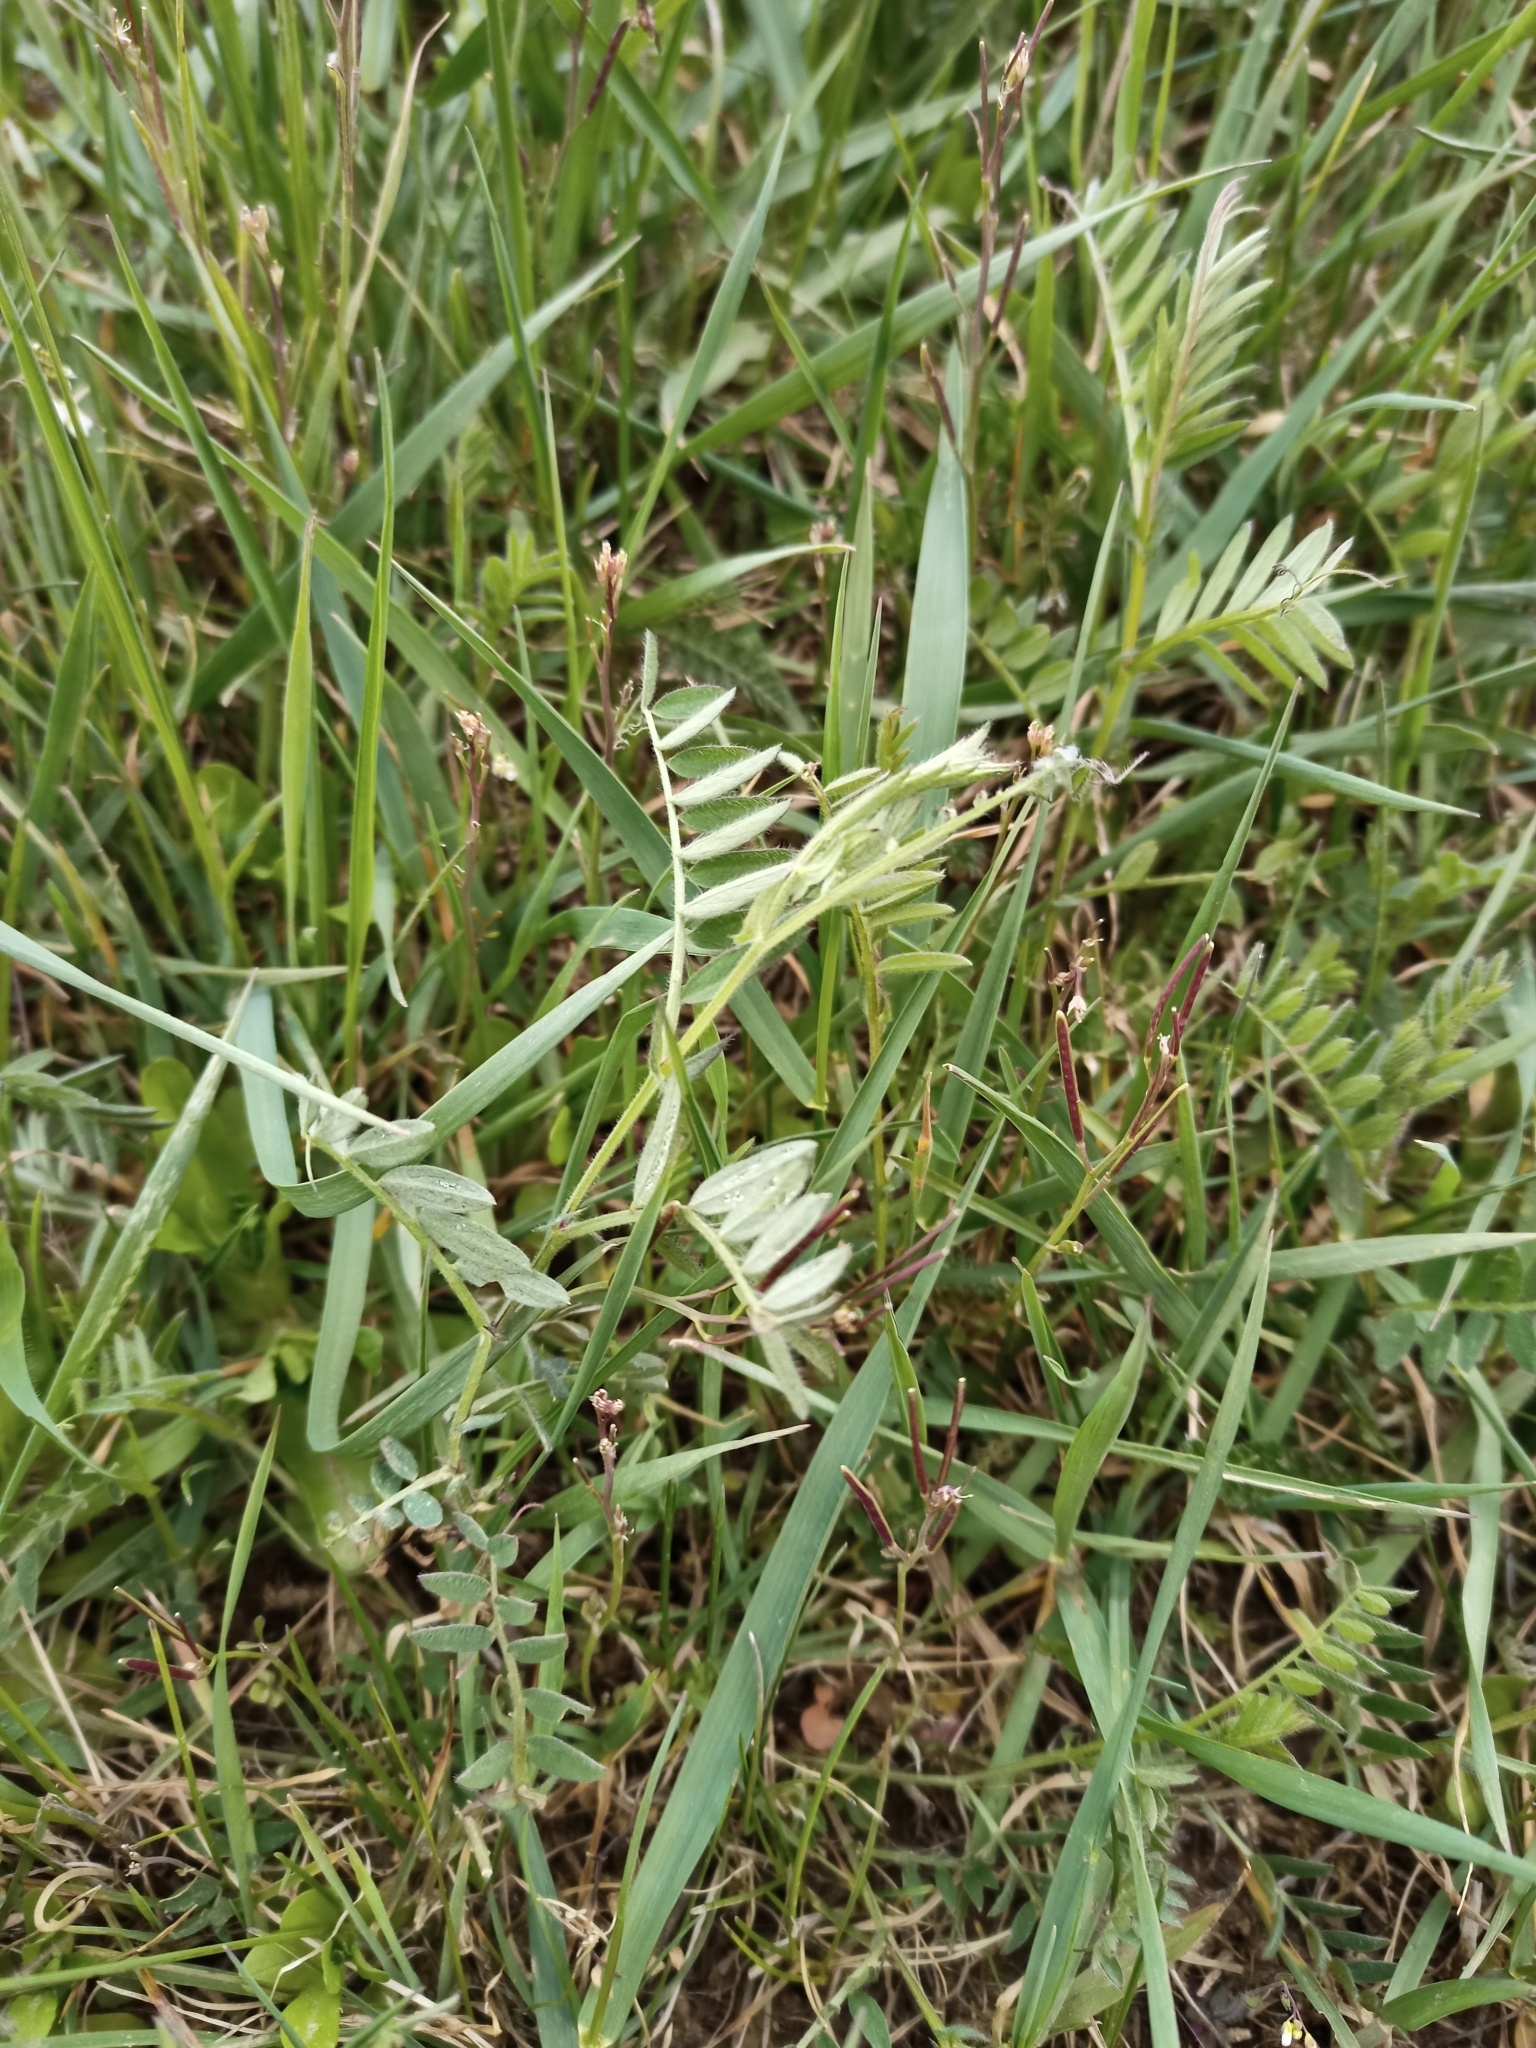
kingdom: Plantae
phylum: Tracheophyta
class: Magnoliopsida
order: Fabales
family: Fabaceae
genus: Vicia
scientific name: Vicia cracca
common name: Bird vetch
